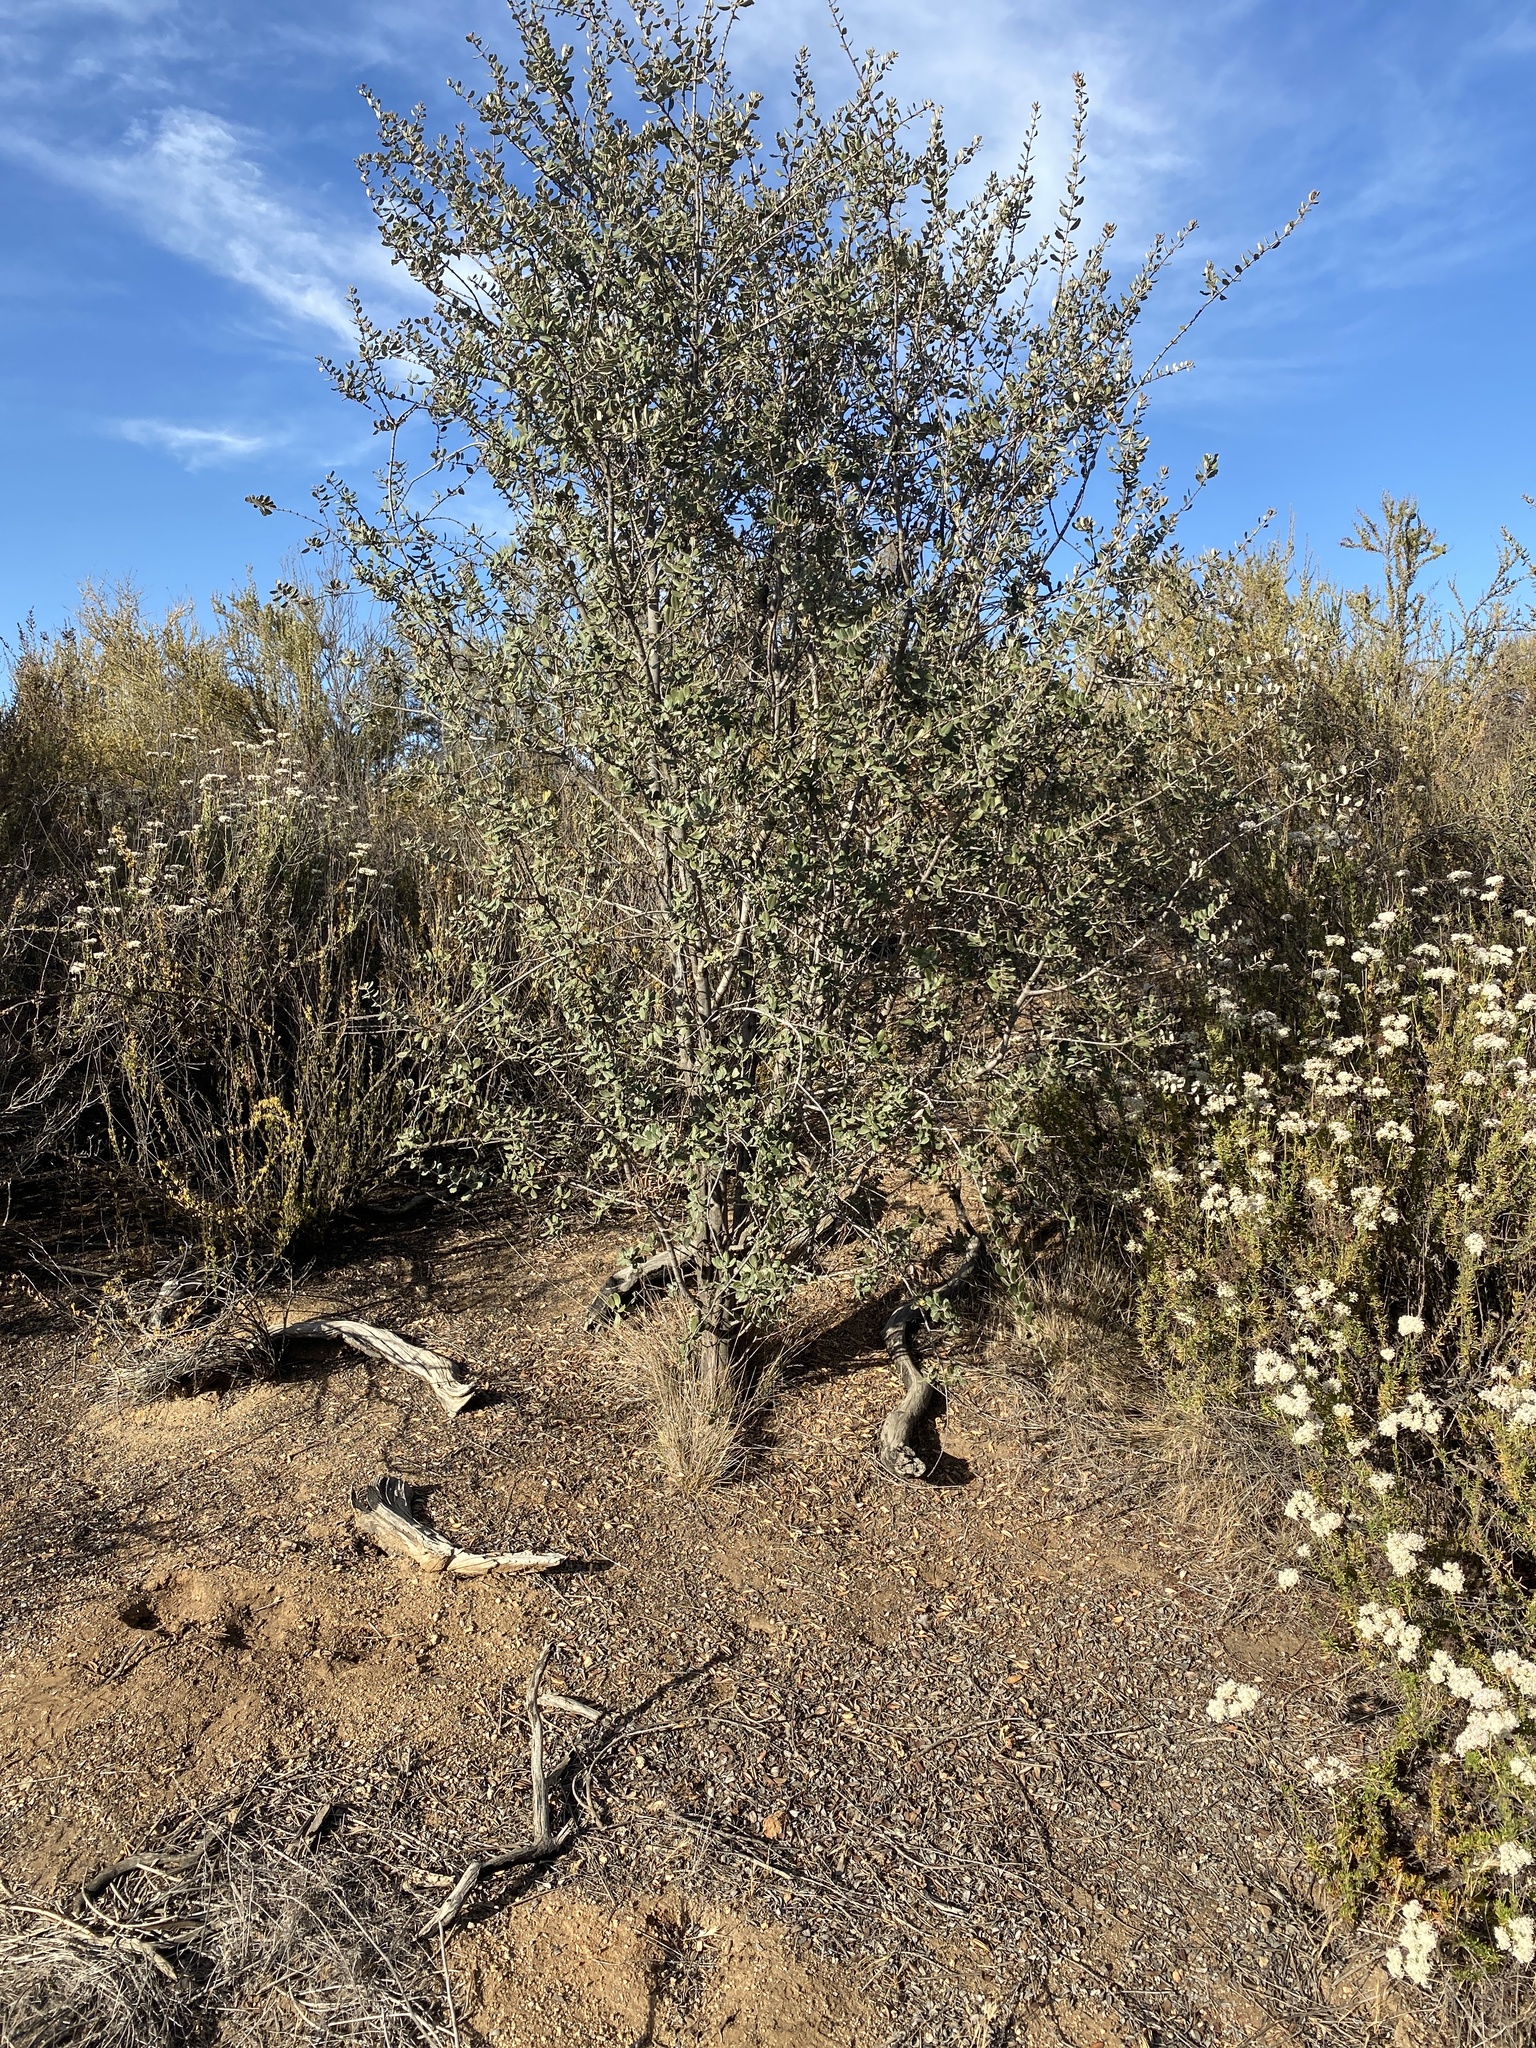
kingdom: Plantae
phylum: Tracheophyta
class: Magnoliopsida
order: Rosales
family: Rhamnaceae
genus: Ceanothus
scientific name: Ceanothus crassifolius
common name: Hoaryleaf ceanothus
